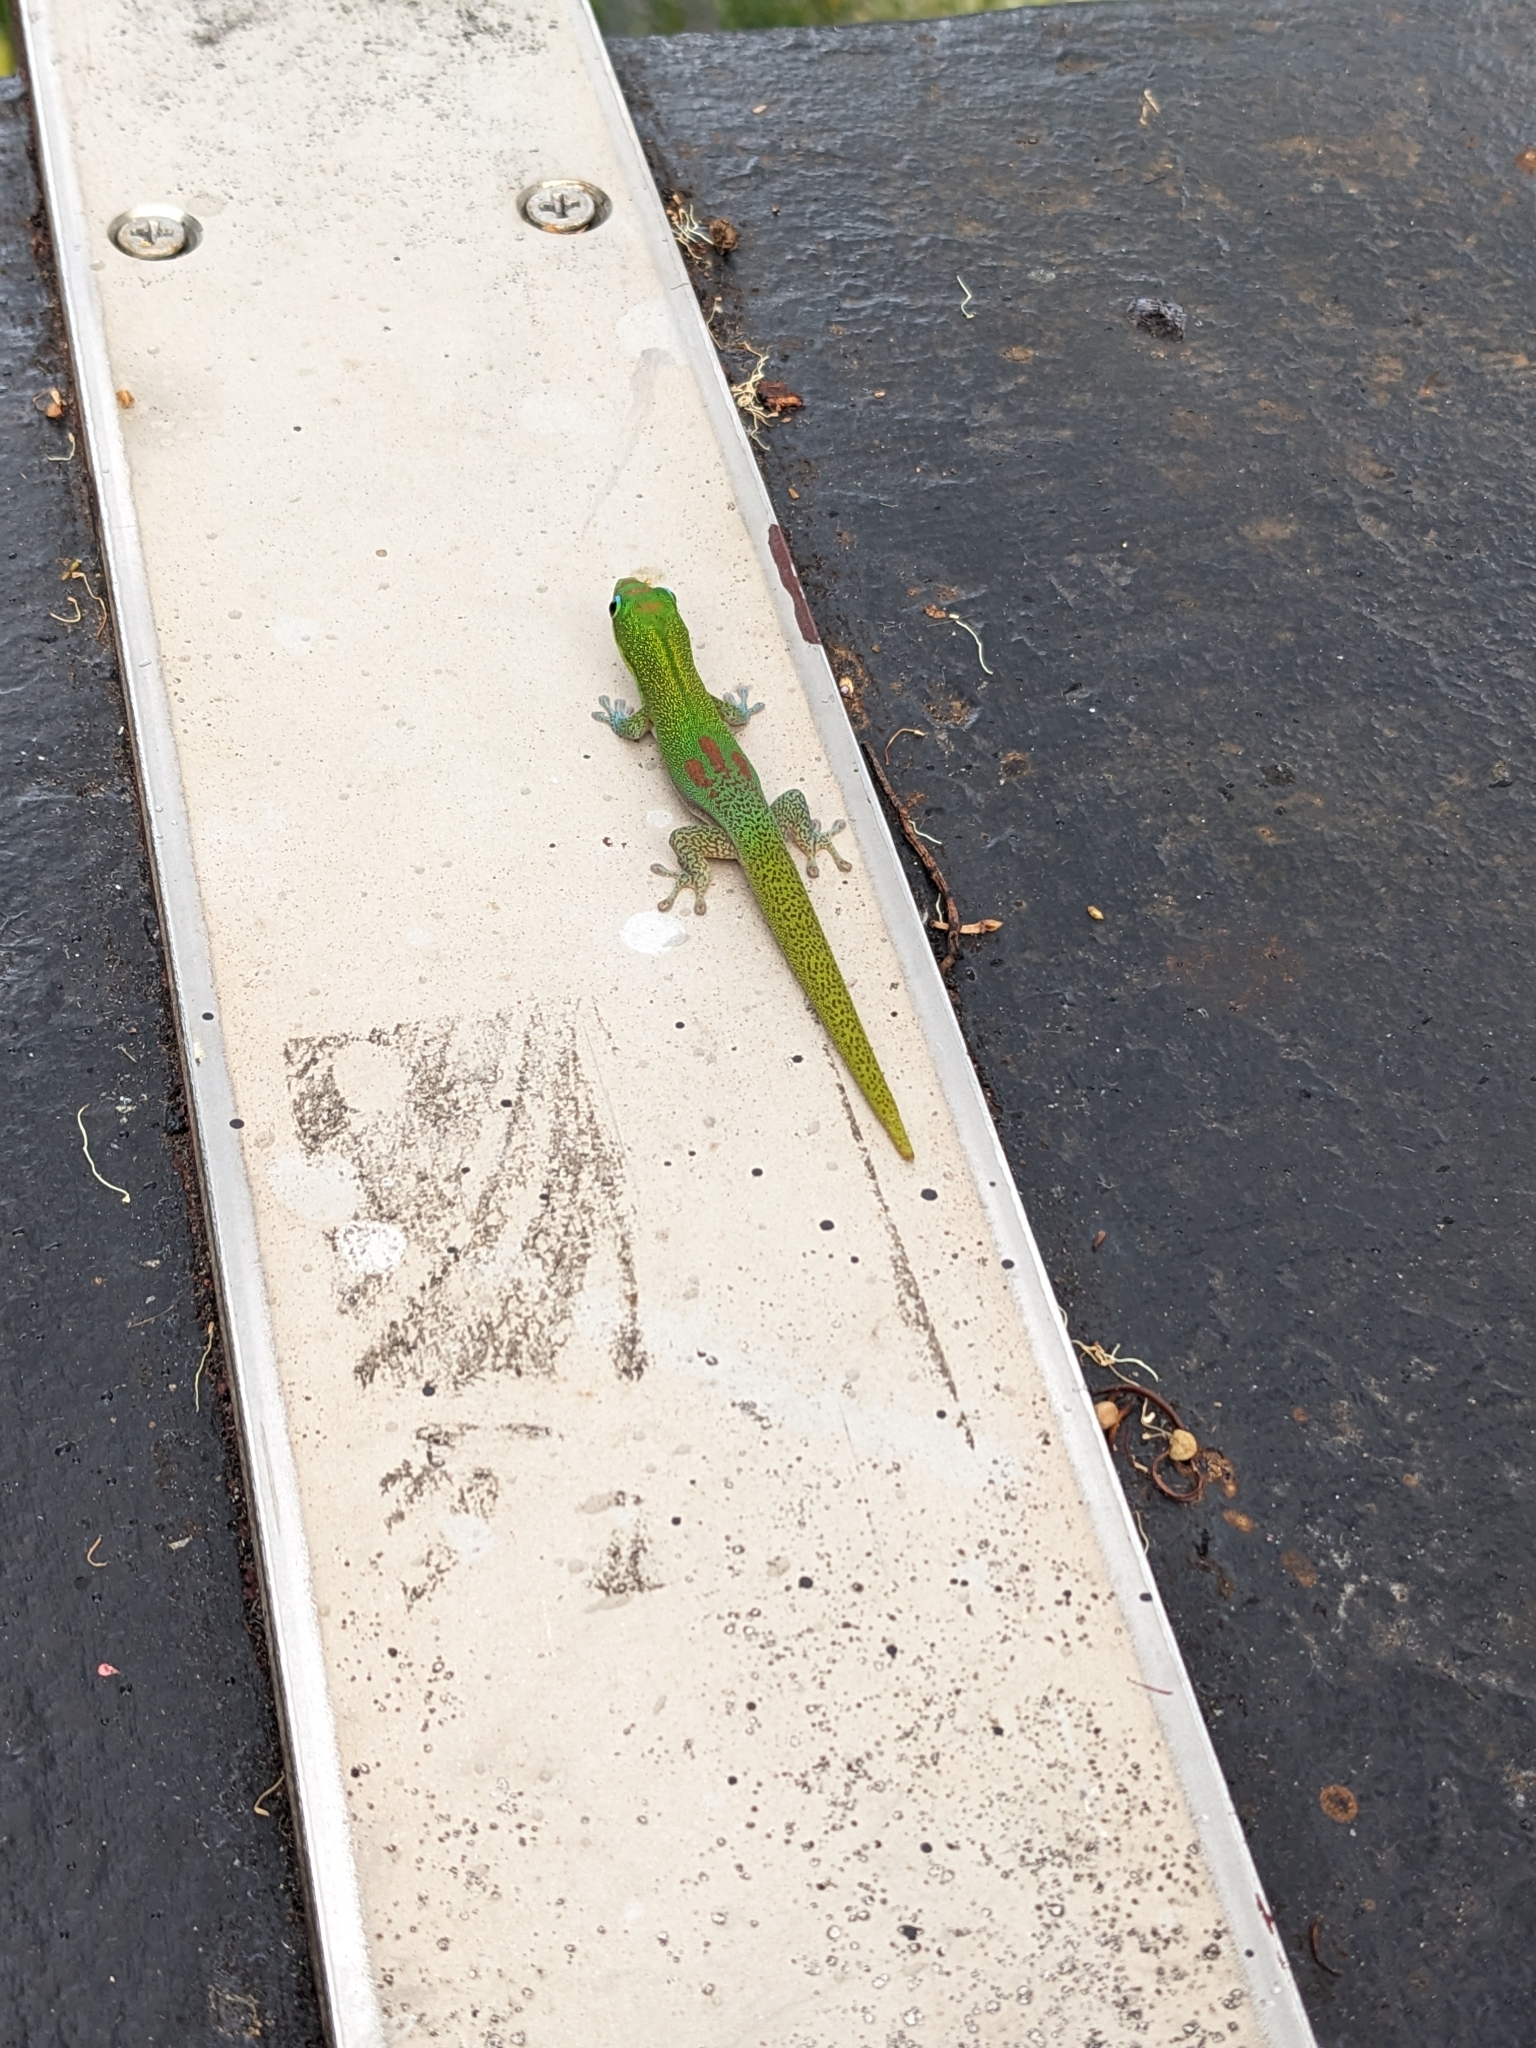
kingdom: Animalia
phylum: Chordata
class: Squamata
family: Gekkonidae
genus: Phelsuma
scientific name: Phelsuma laticauda
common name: Gold dust day gecko
